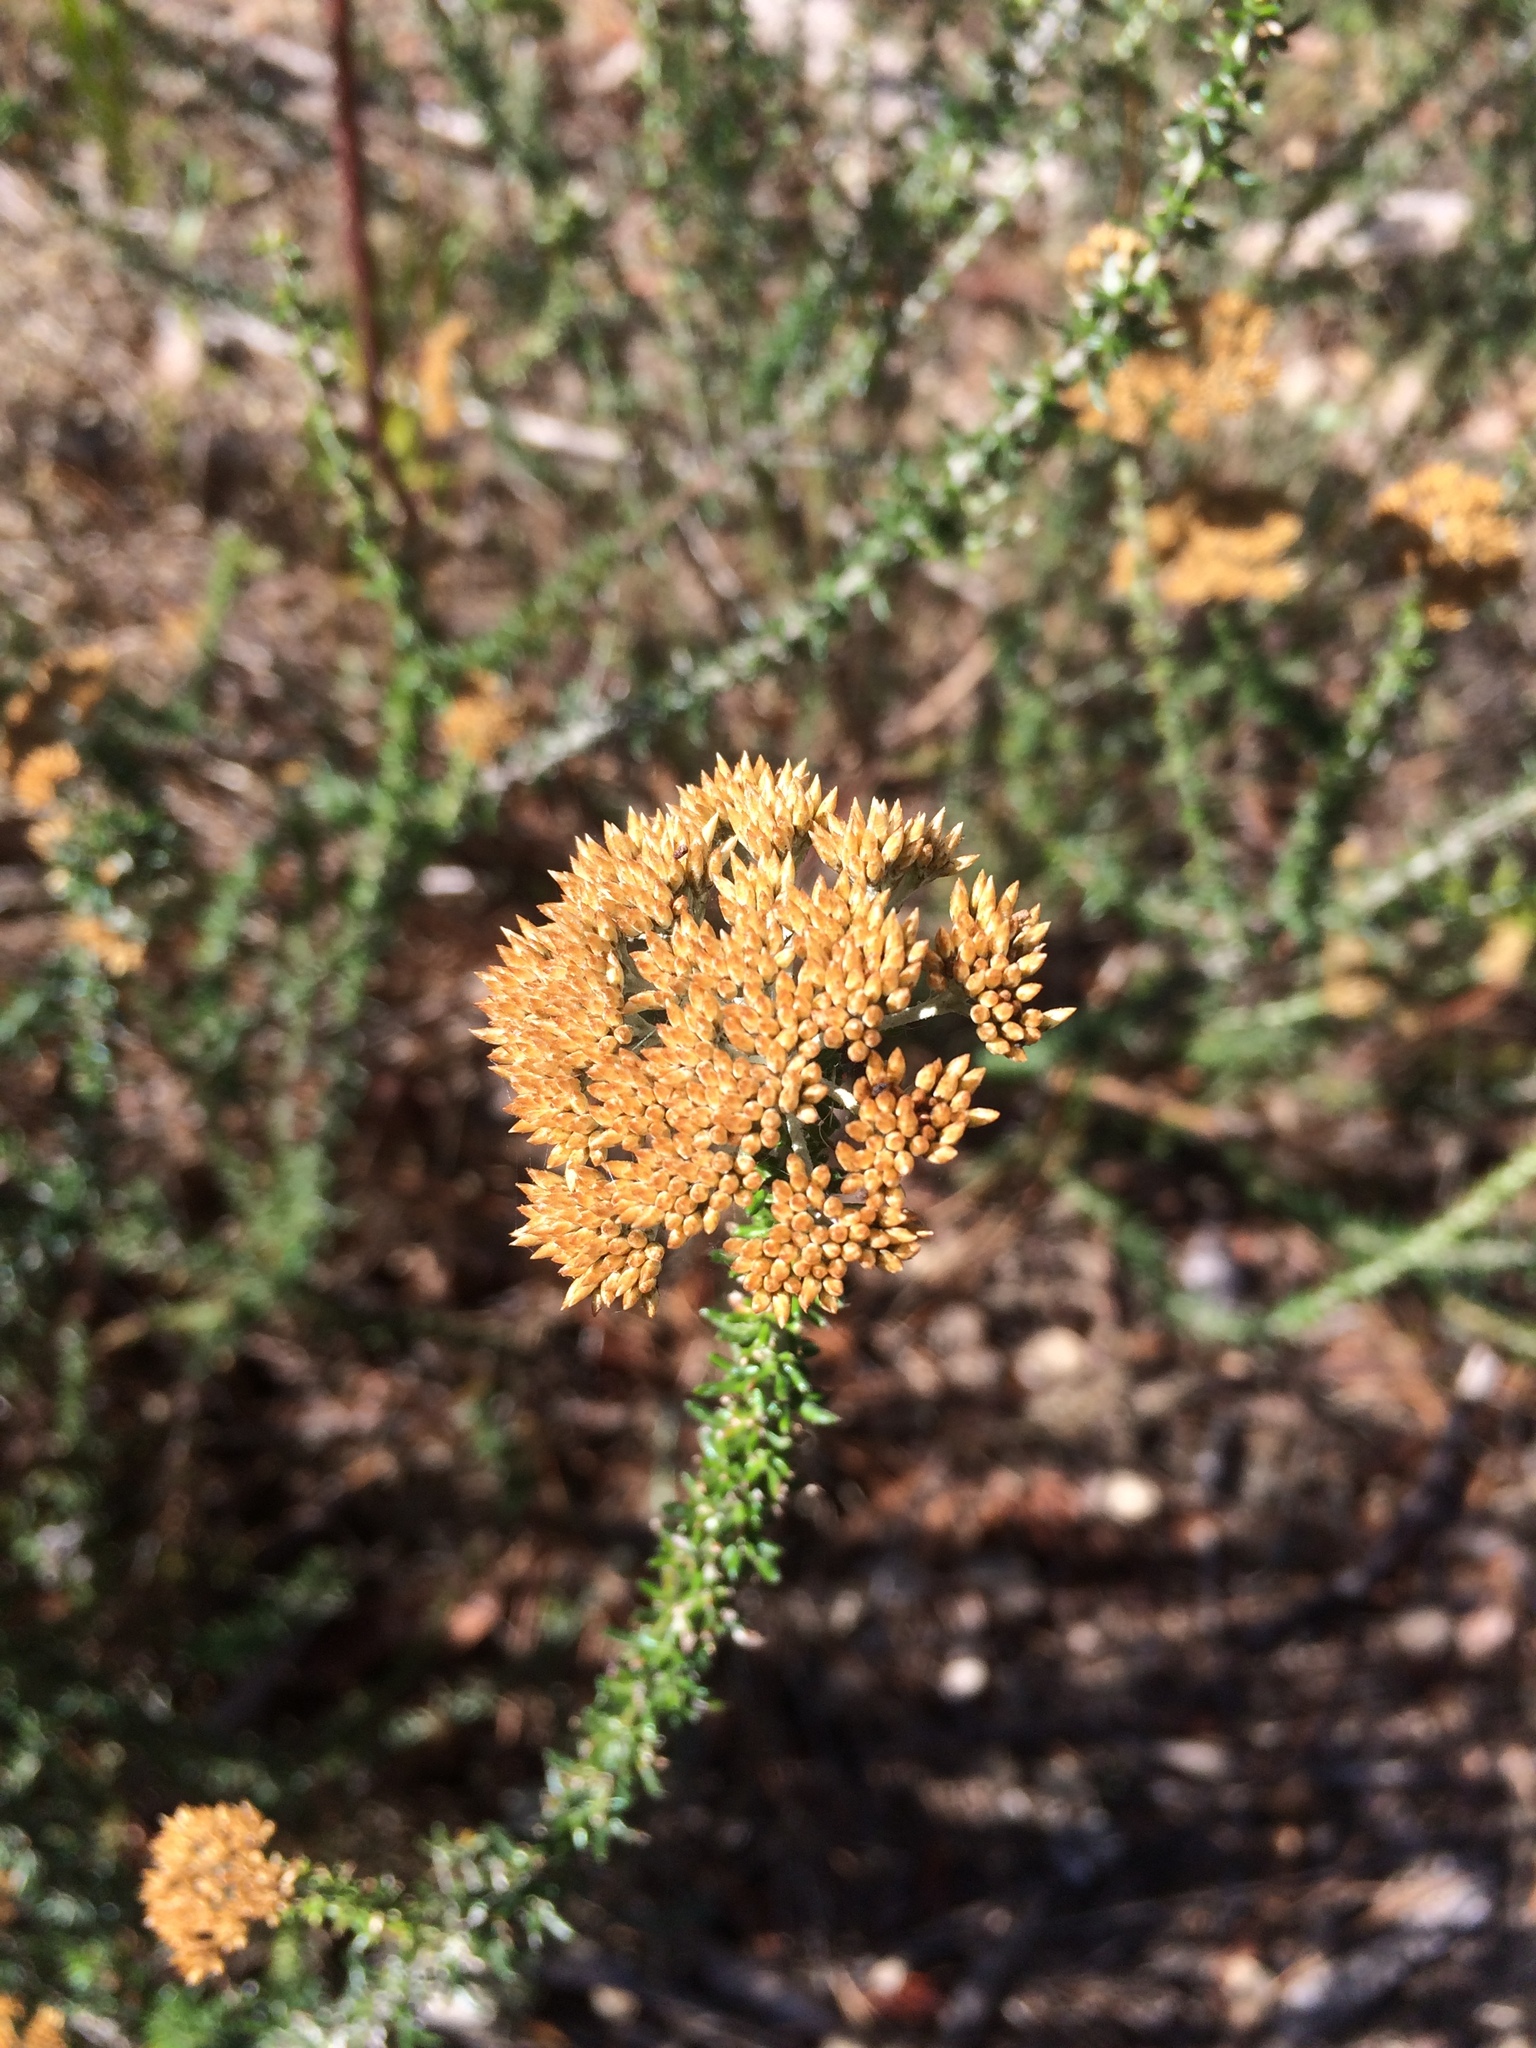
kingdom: Plantae
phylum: Tracheophyta
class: Magnoliopsida
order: Asterales
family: Asteraceae
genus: Metalasia
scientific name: Metalasia densa
